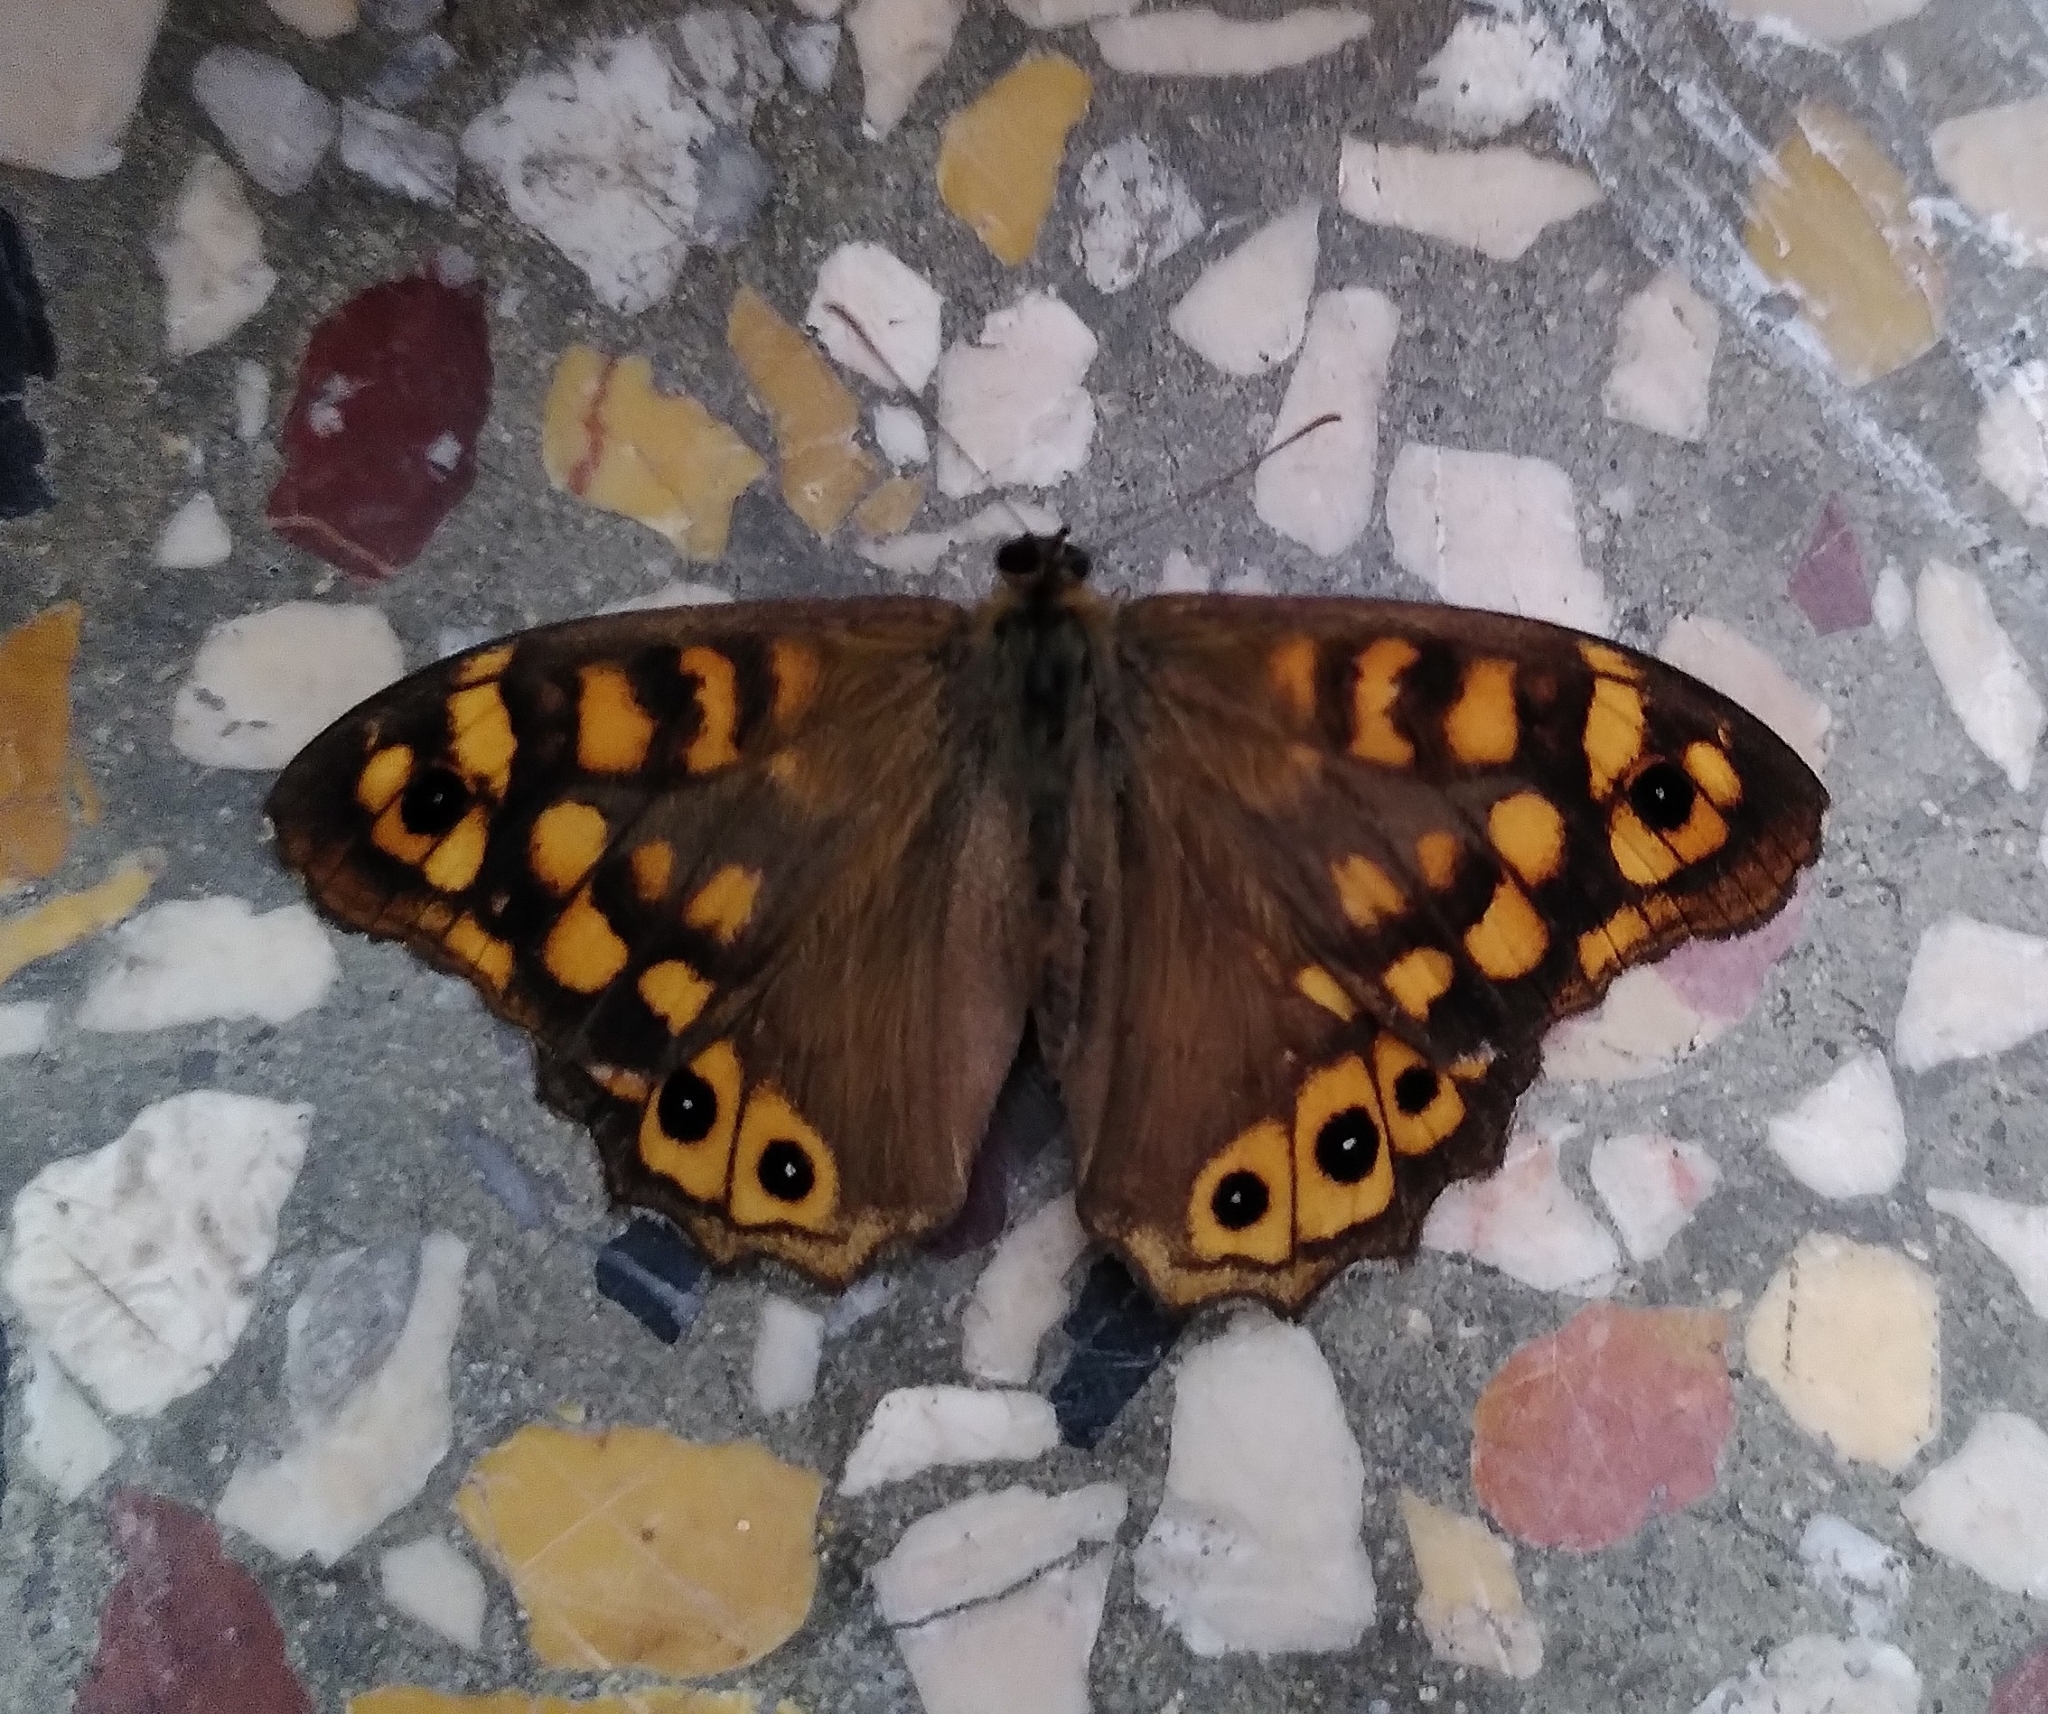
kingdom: Animalia
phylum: Arthropoda
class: Insecta
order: Lepidoptera
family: Nymphalidae
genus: Pararge
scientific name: Pararge aegeria
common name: Speckled wood
